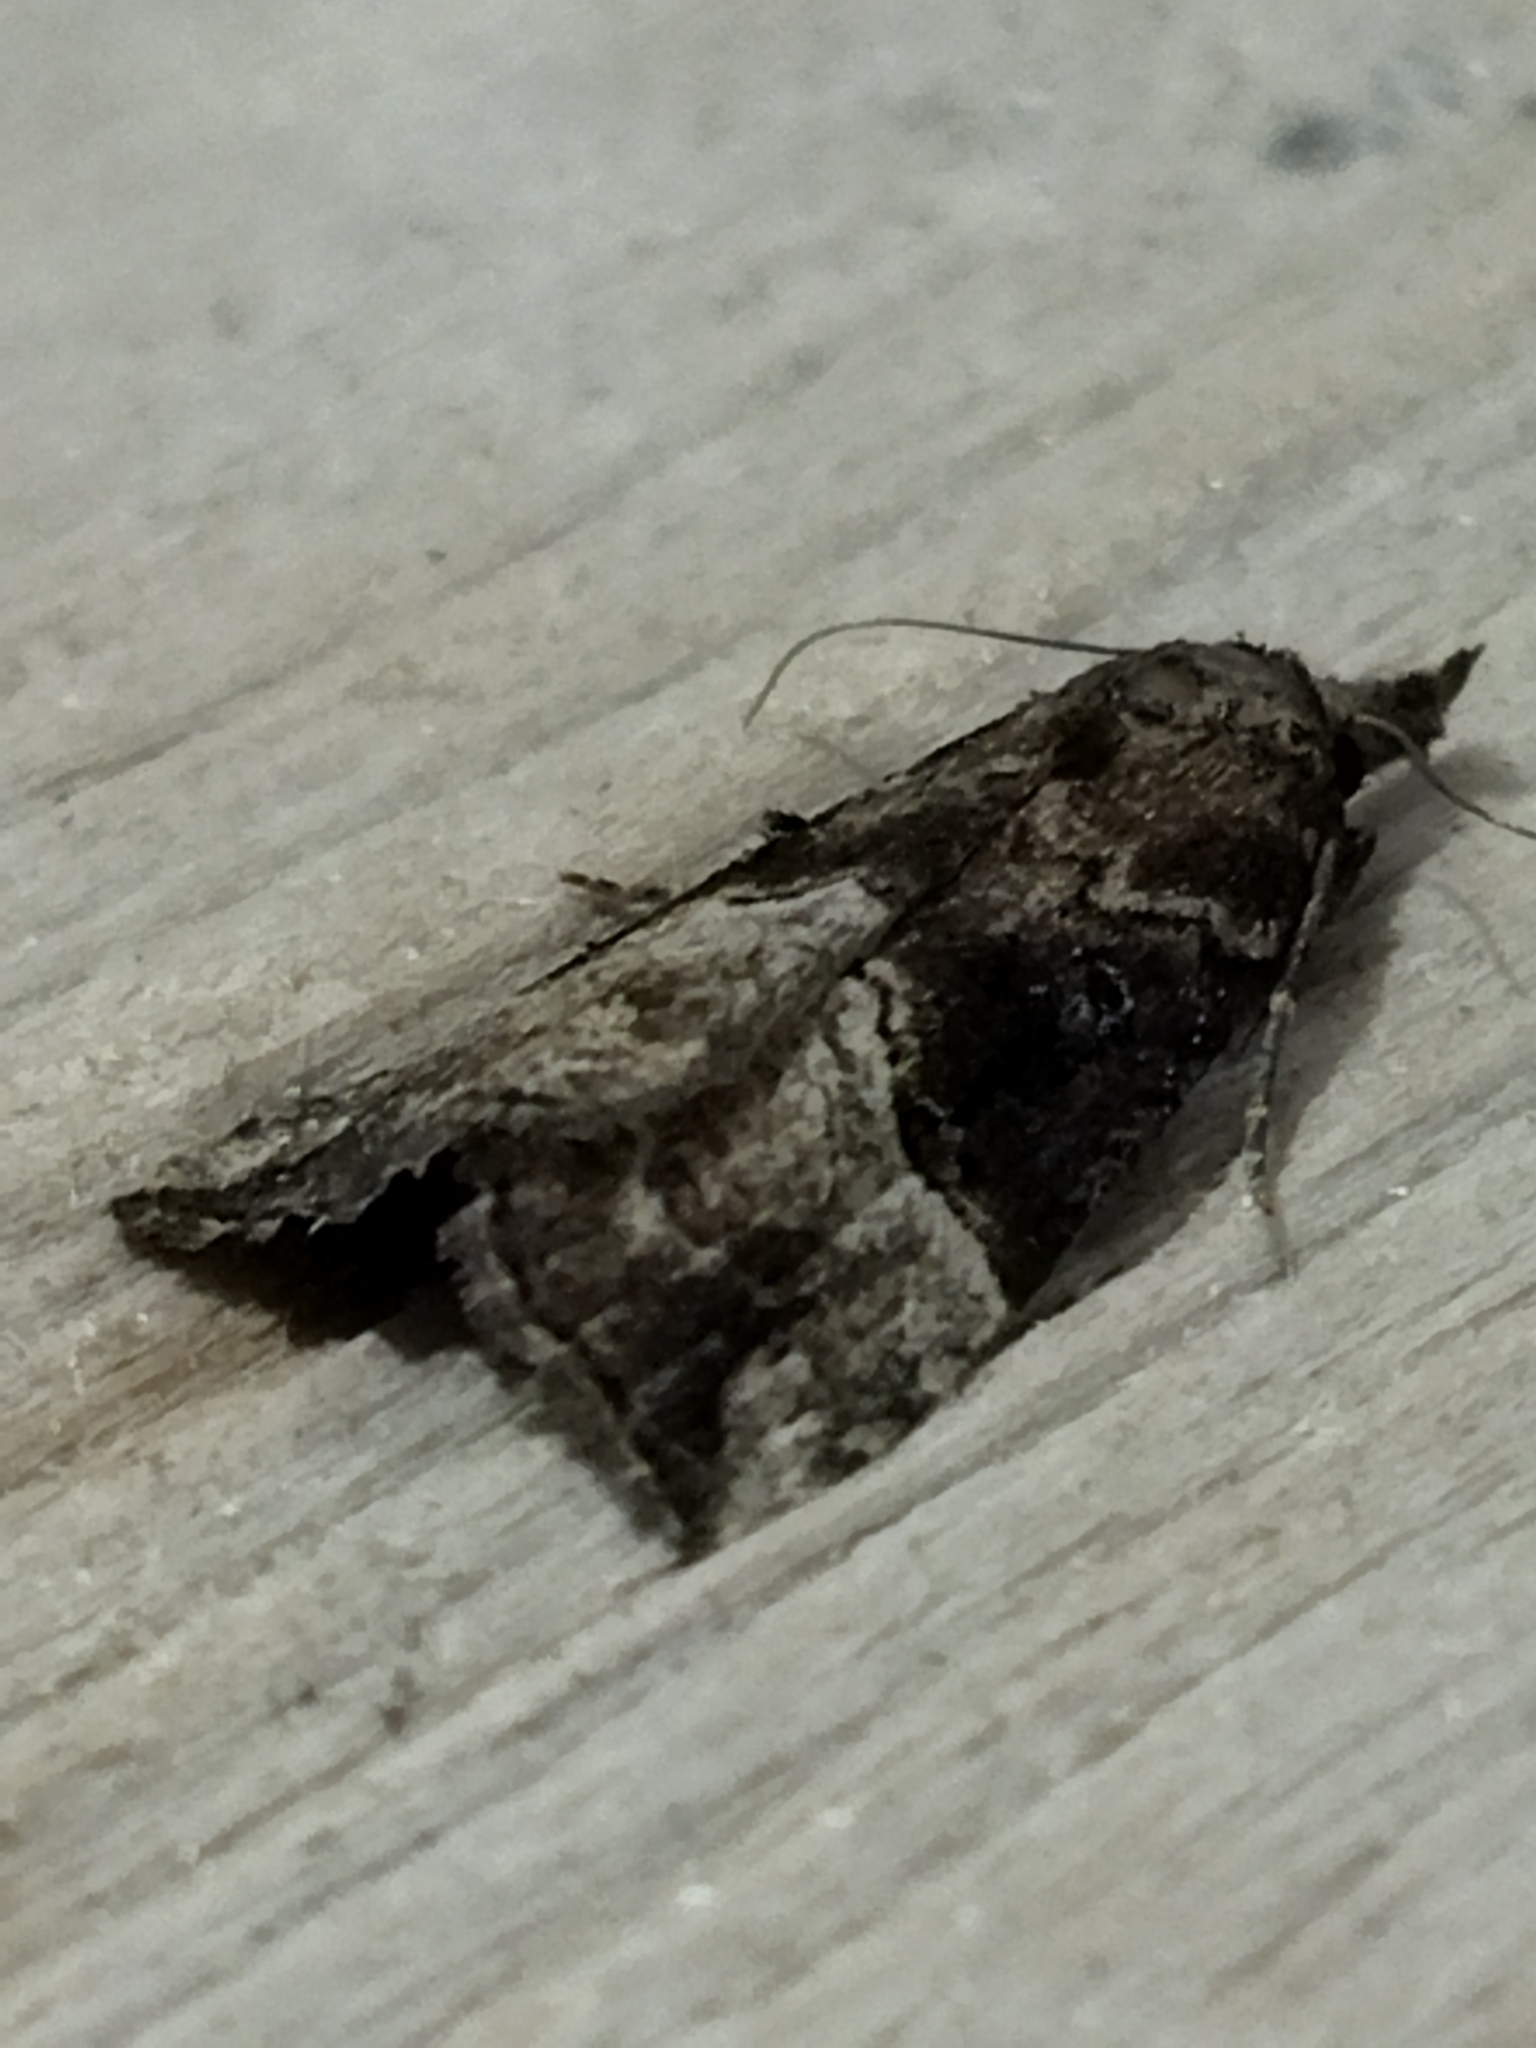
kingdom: Animalia
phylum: Arthropoda
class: Insecta
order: Lepidoptera
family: Erebidae
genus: Hypena
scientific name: Hypena rostralis
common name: Buttoned snout
